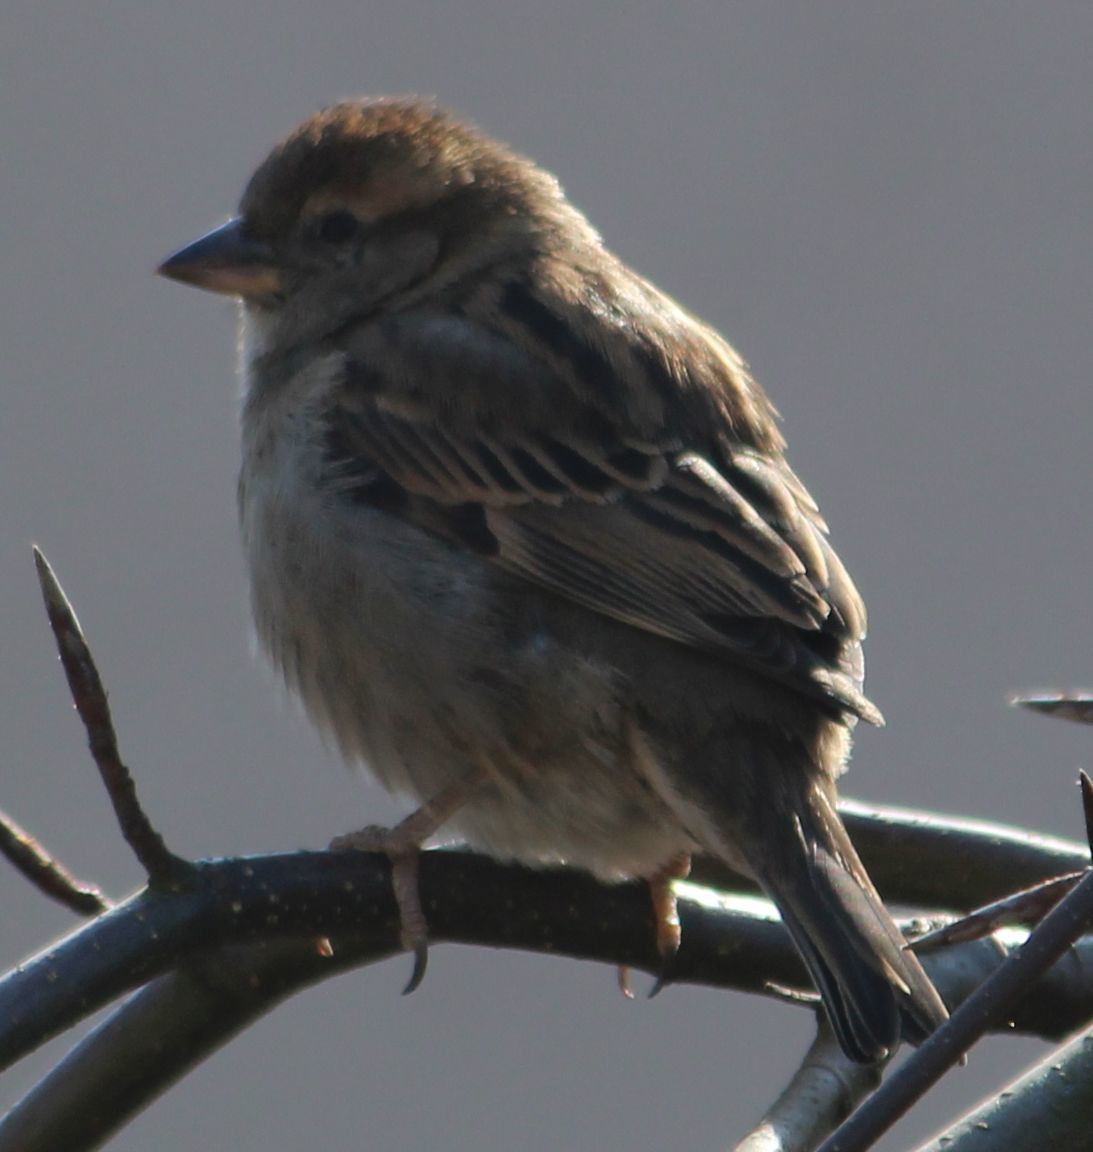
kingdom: Animalia
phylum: Chordata
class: Aves
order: Passeriformes
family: Passeridae
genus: Passer
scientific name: Passer domesticus
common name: House sparrow
